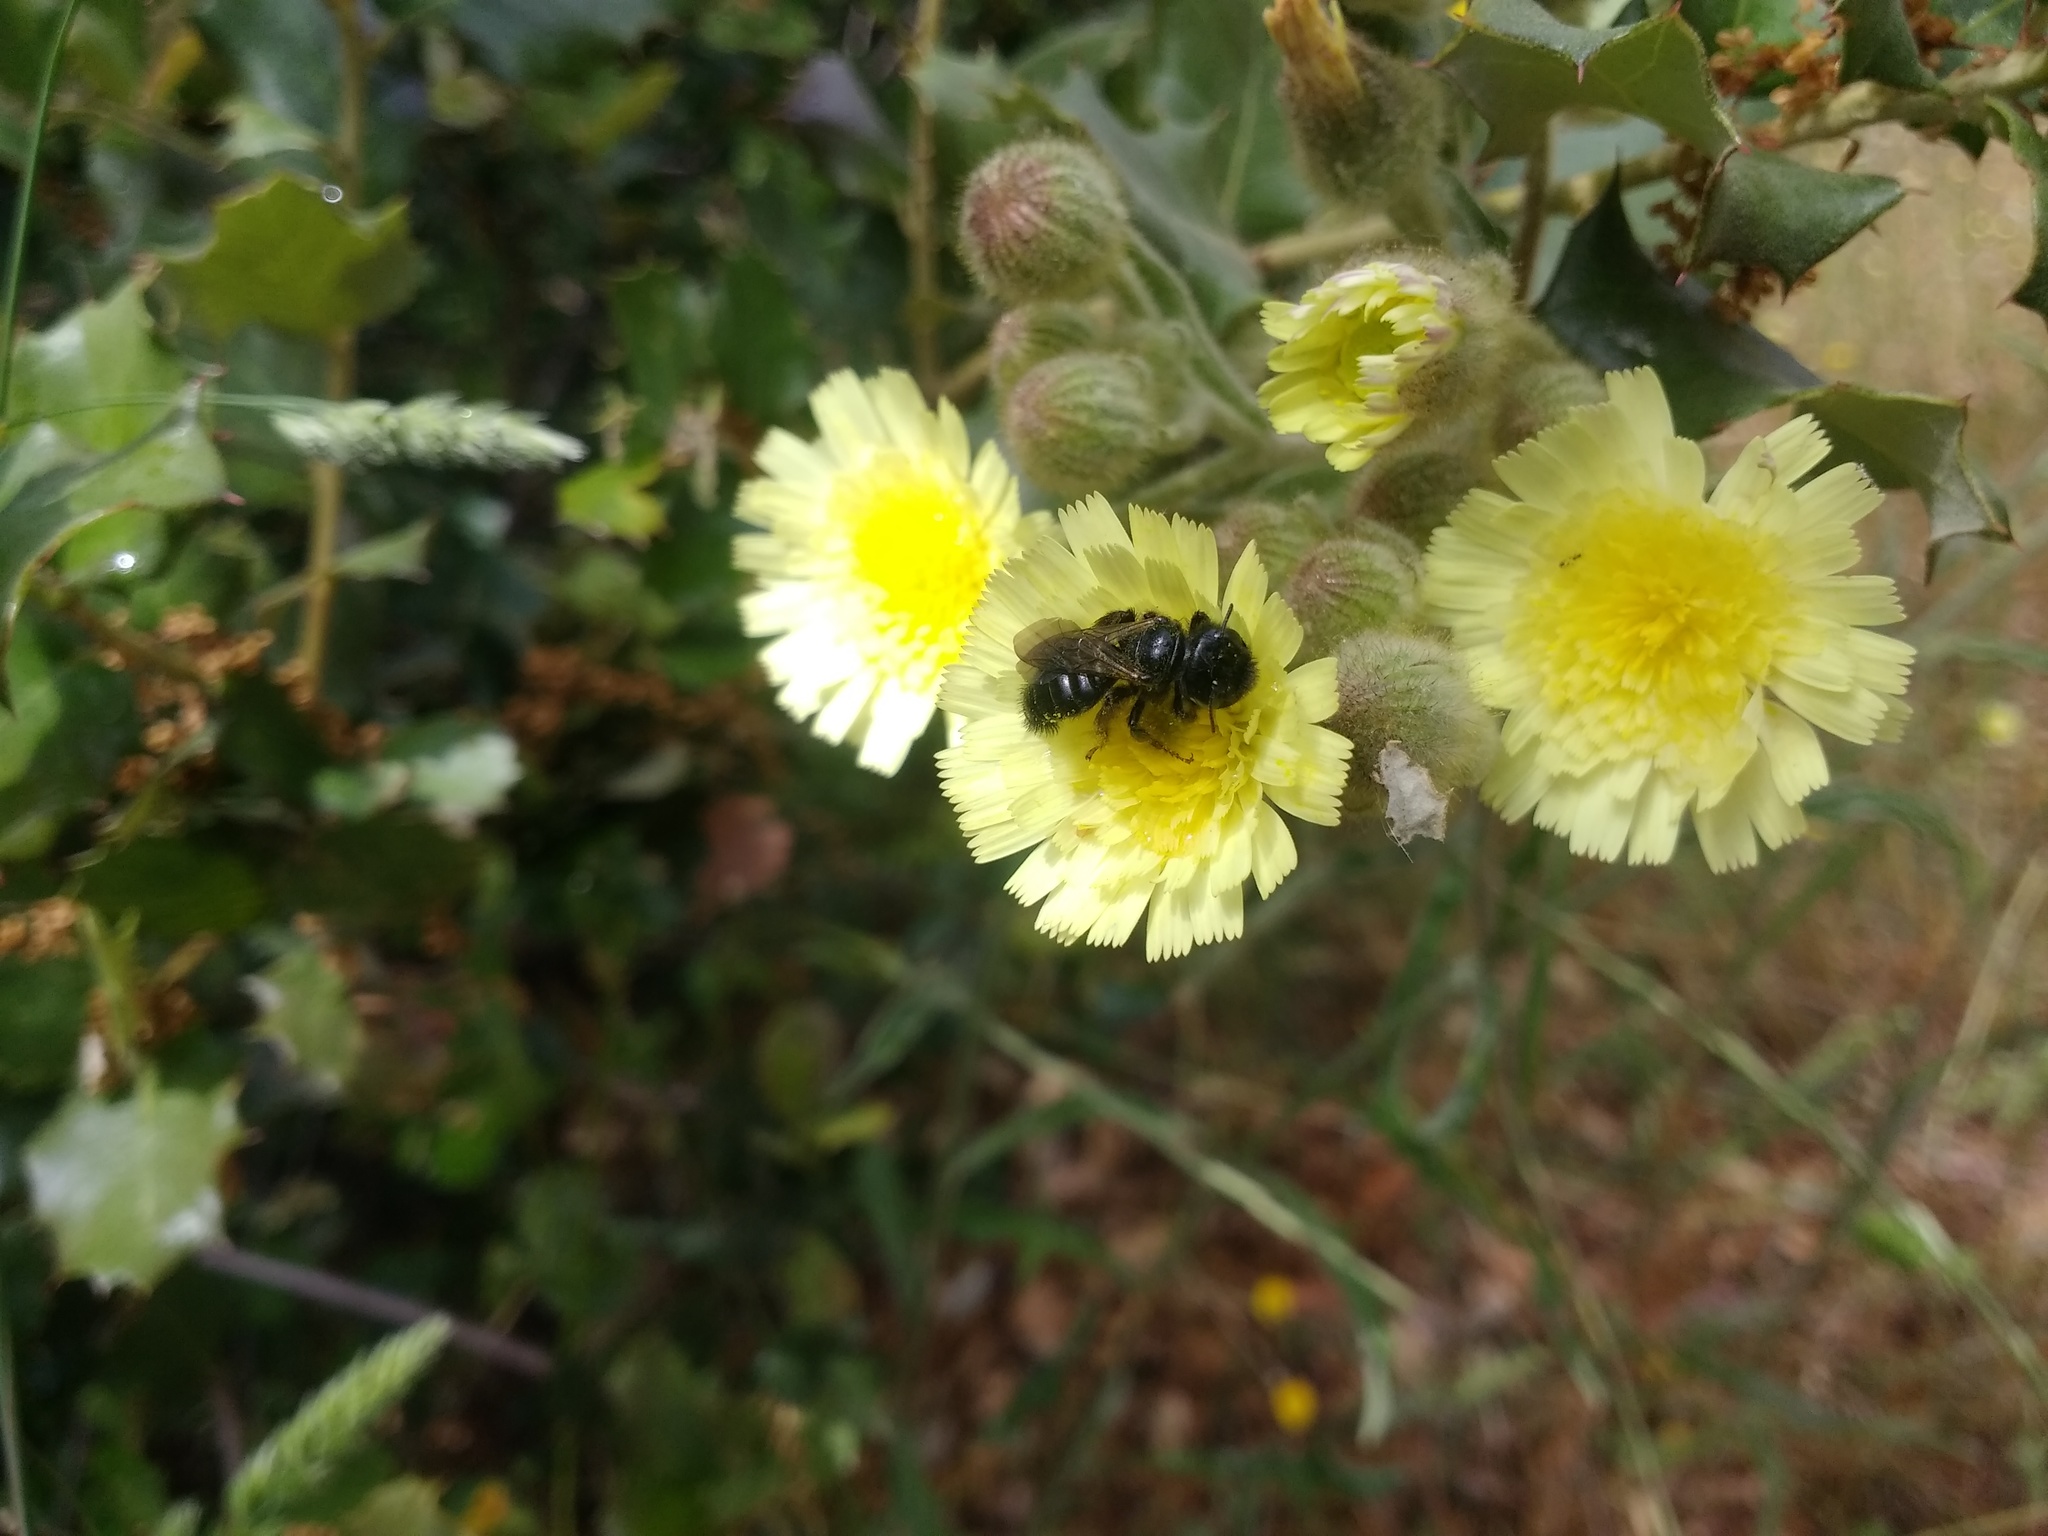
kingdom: Plantae
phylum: Tracheophyta
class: Magnoliopsida
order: Asterales
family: Asteraceae
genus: Andryala
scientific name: Andryala integrifolia
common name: Common andryala
